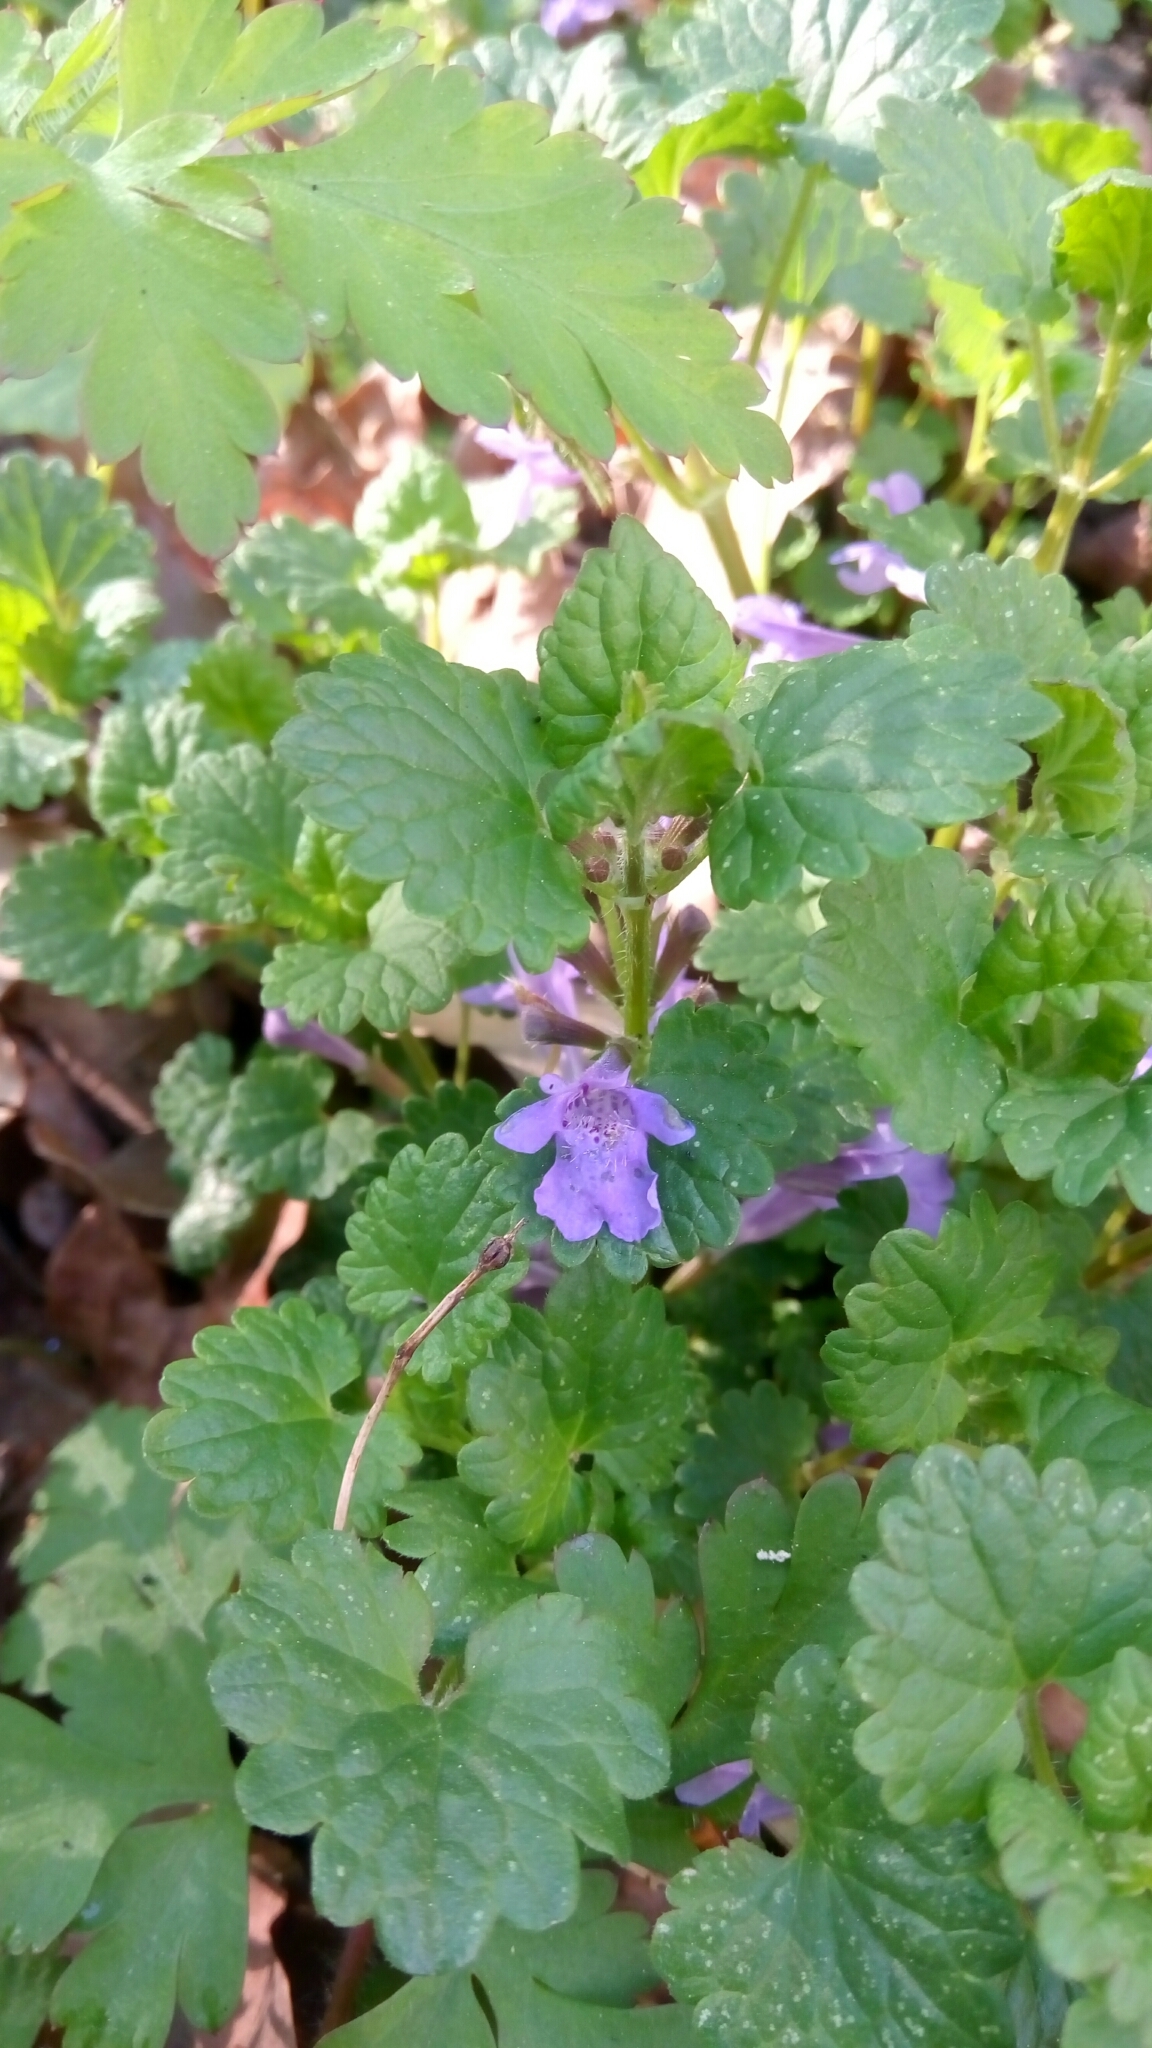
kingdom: Plantae
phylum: Tracheophyta
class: Magnoliopsida
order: Lamiales
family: Lamiaceae
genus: Glechoma
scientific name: Glechoma hederacea
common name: Ground ivy
